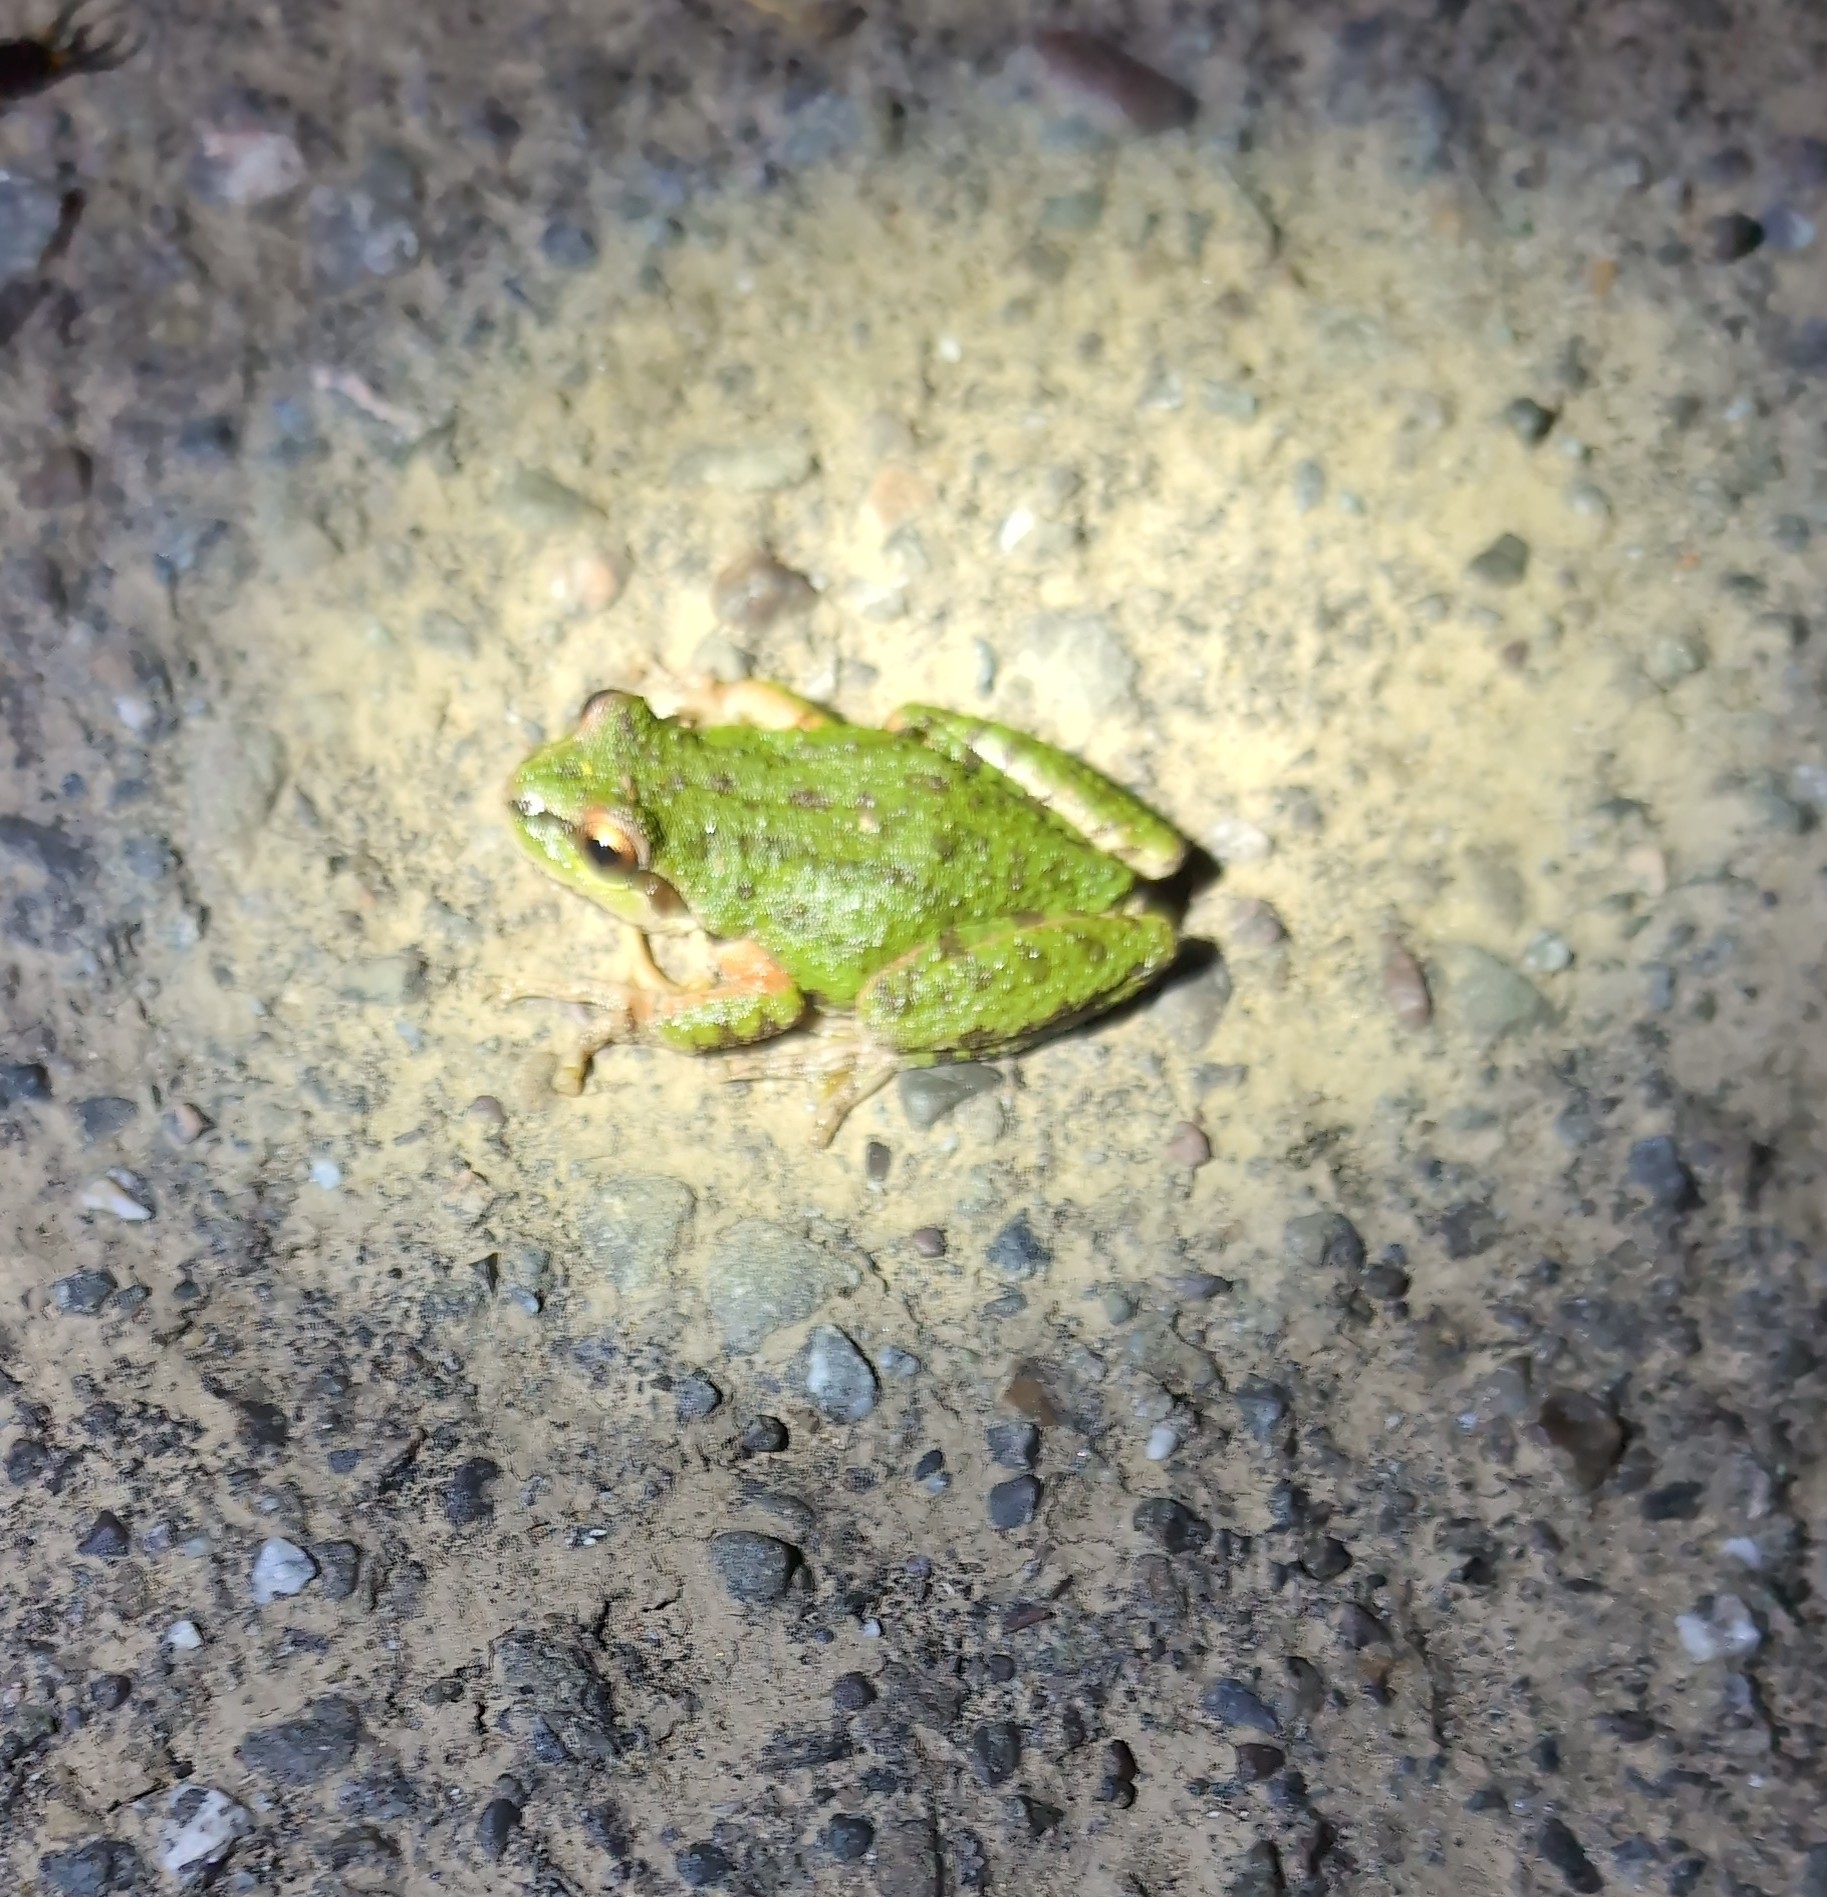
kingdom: Animalia
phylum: Chordata
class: Amphibia
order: Anura
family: Hylidae
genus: Pseudacris
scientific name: Pseudacris regilla
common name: Pacific chorus frog
